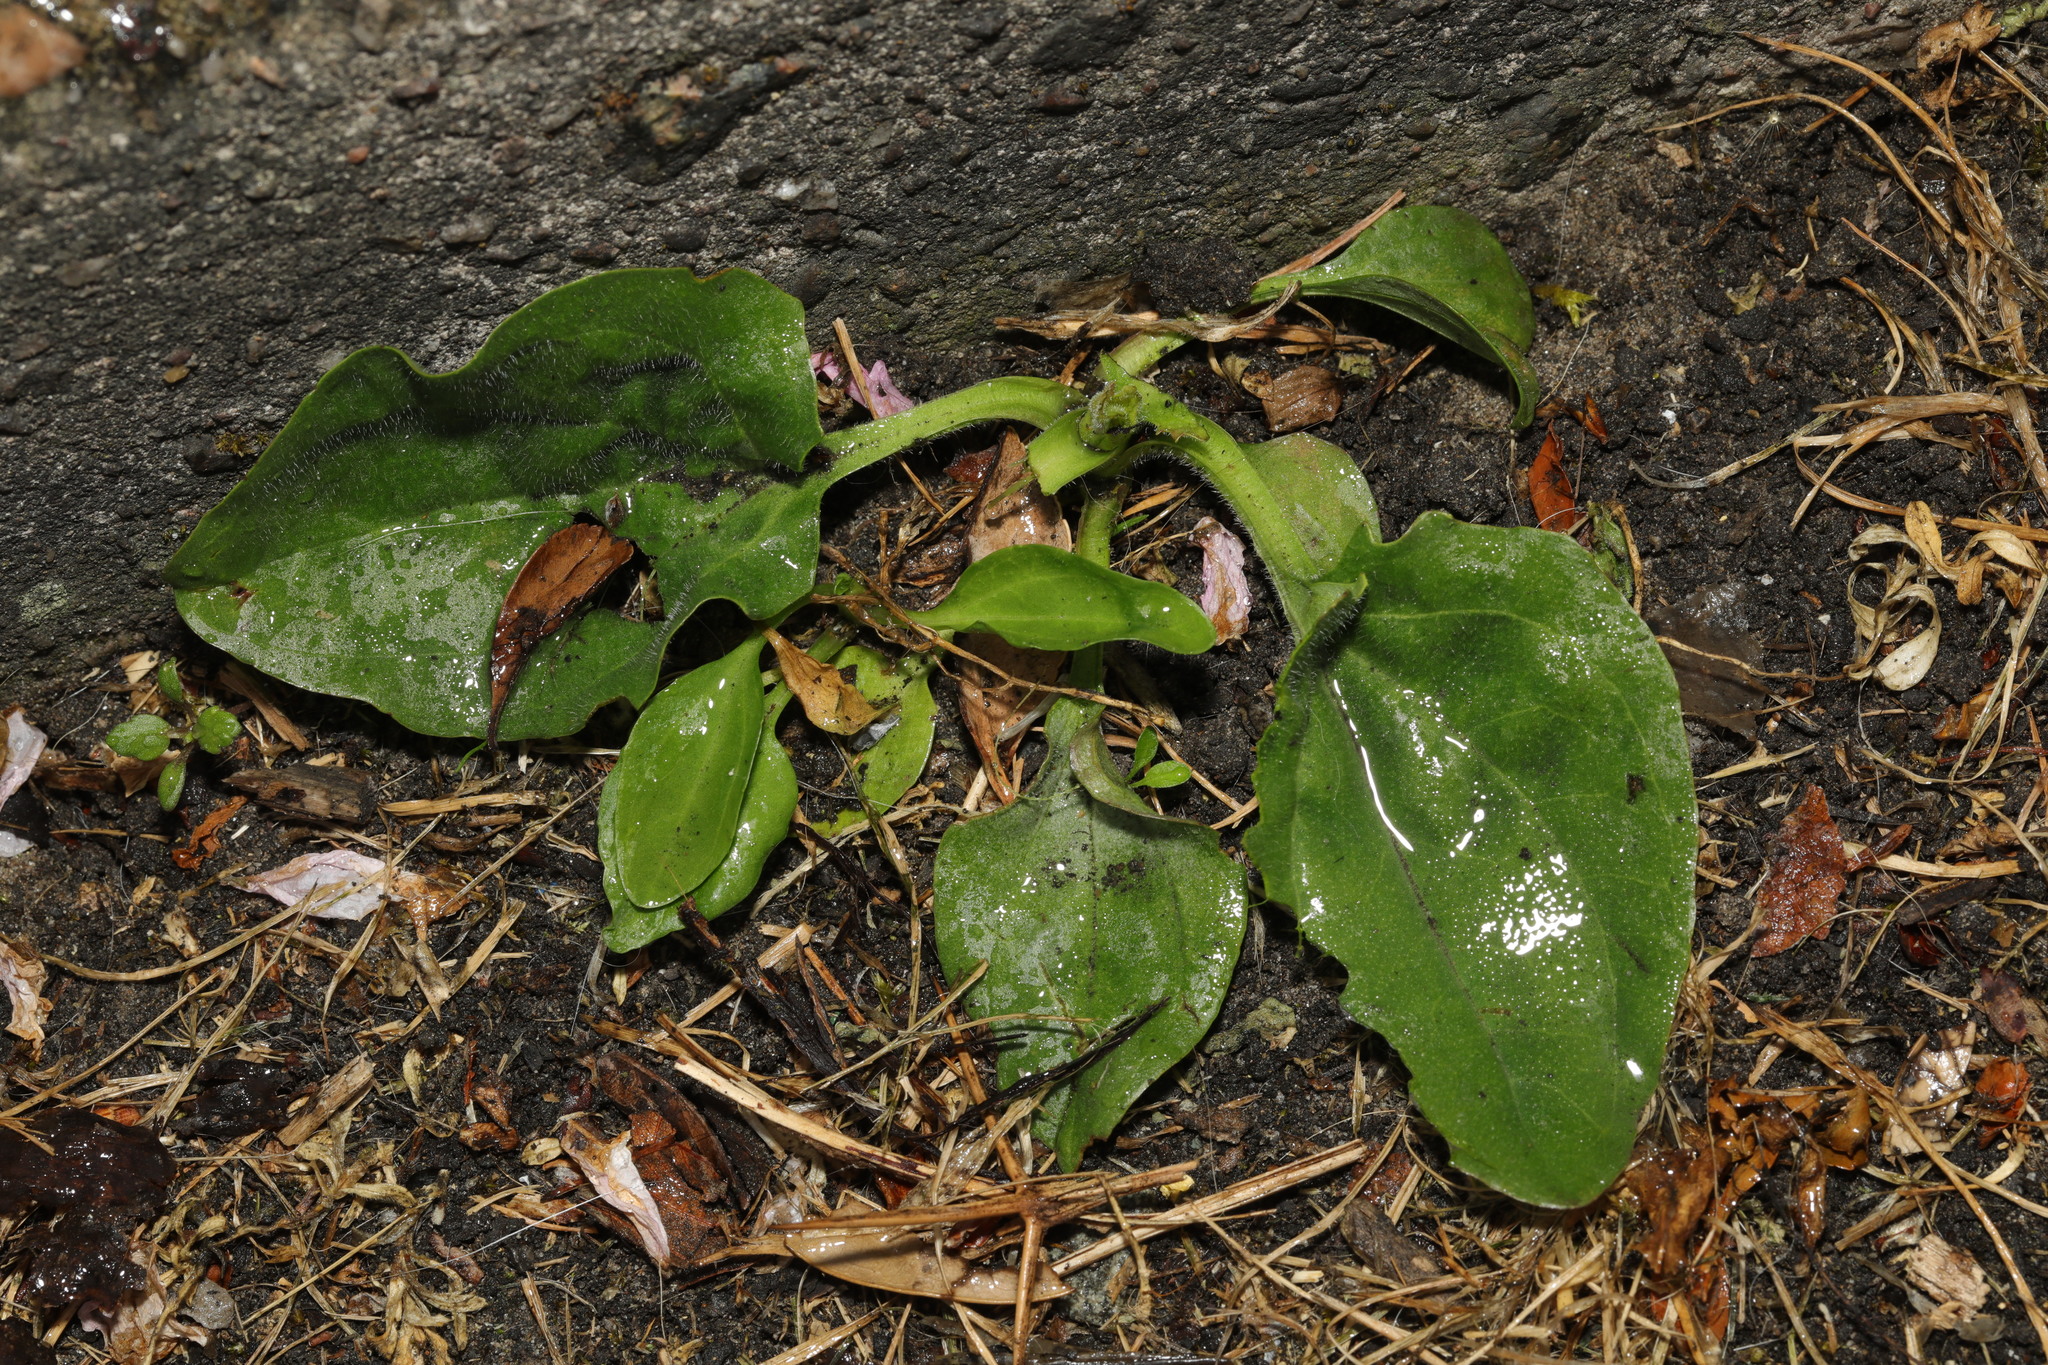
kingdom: Plantae
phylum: Tracheophyta
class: Magnoliopsida
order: Lamiales
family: Plantaginaceae
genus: Plantago
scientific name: Plantago major
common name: Common plantain
